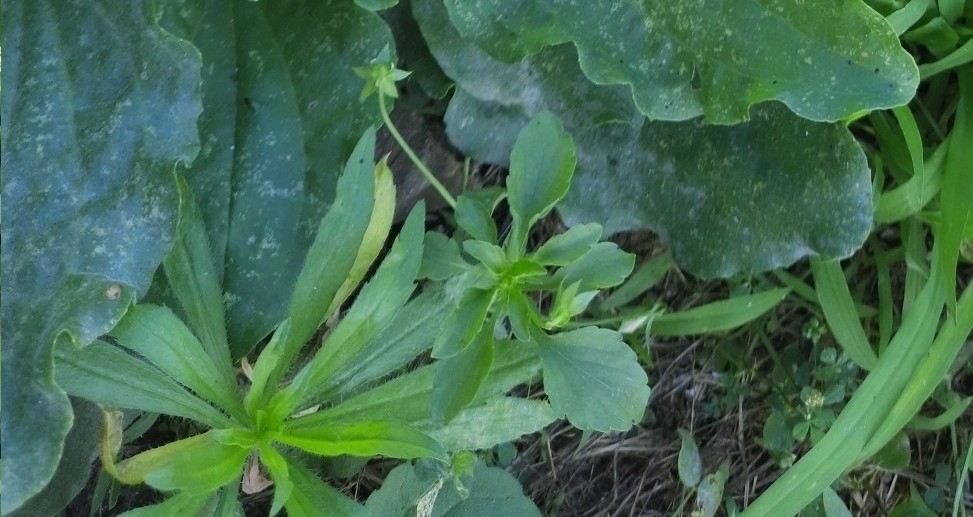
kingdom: Plantae
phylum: Tracheophyta
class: Magnoliopsida
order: Malpighiales
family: Violaceae
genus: Viola
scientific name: Viola arvensis
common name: Field pansy
